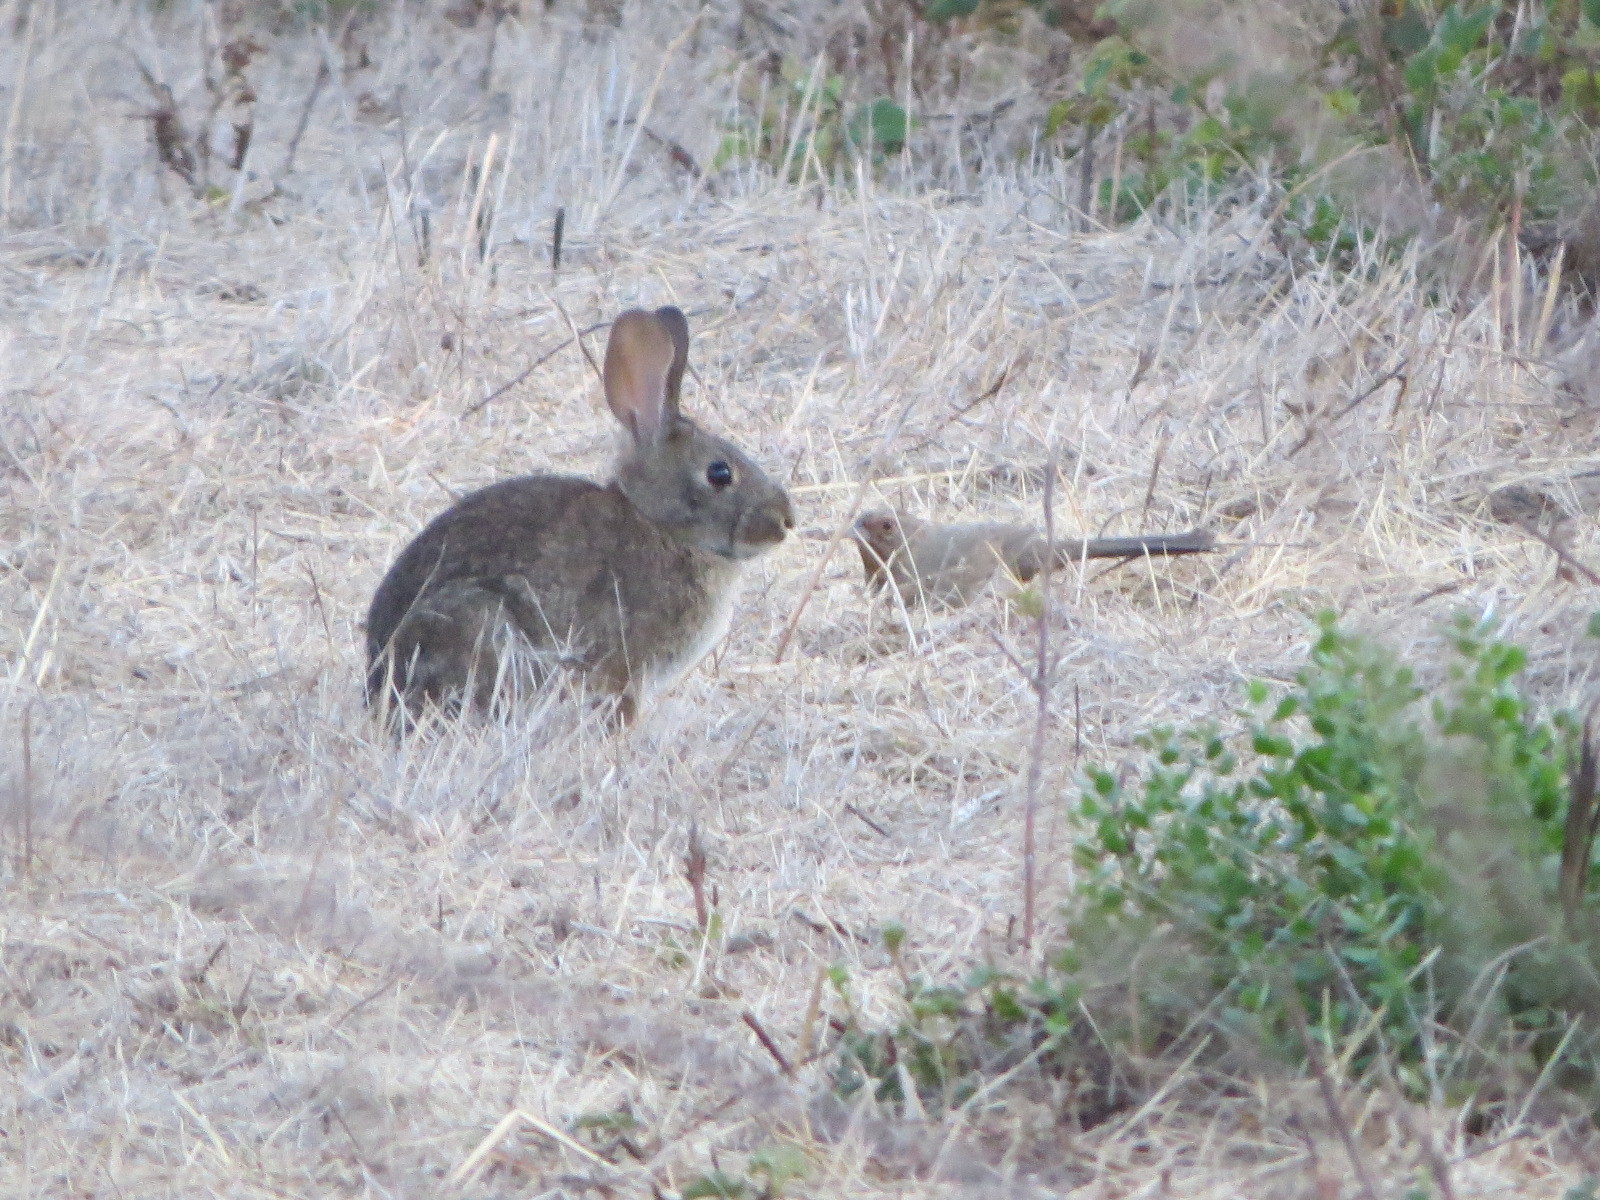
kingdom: Animalia
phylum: Chordata
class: Mammalia
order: Lagomorpha
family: Leporidae
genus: Sylvilagus
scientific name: Sylvilagus bachmani
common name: Brush rabbit
